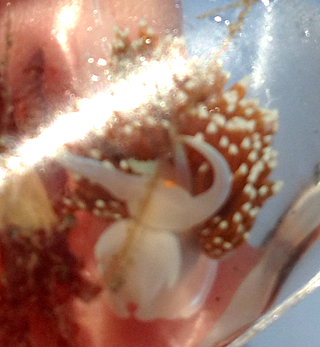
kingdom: Animalia
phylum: Mollusca
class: Gastropoda
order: Nudibranchia
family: Myrrhinidae
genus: Hermissenda
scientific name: Hermissenda opalescens
